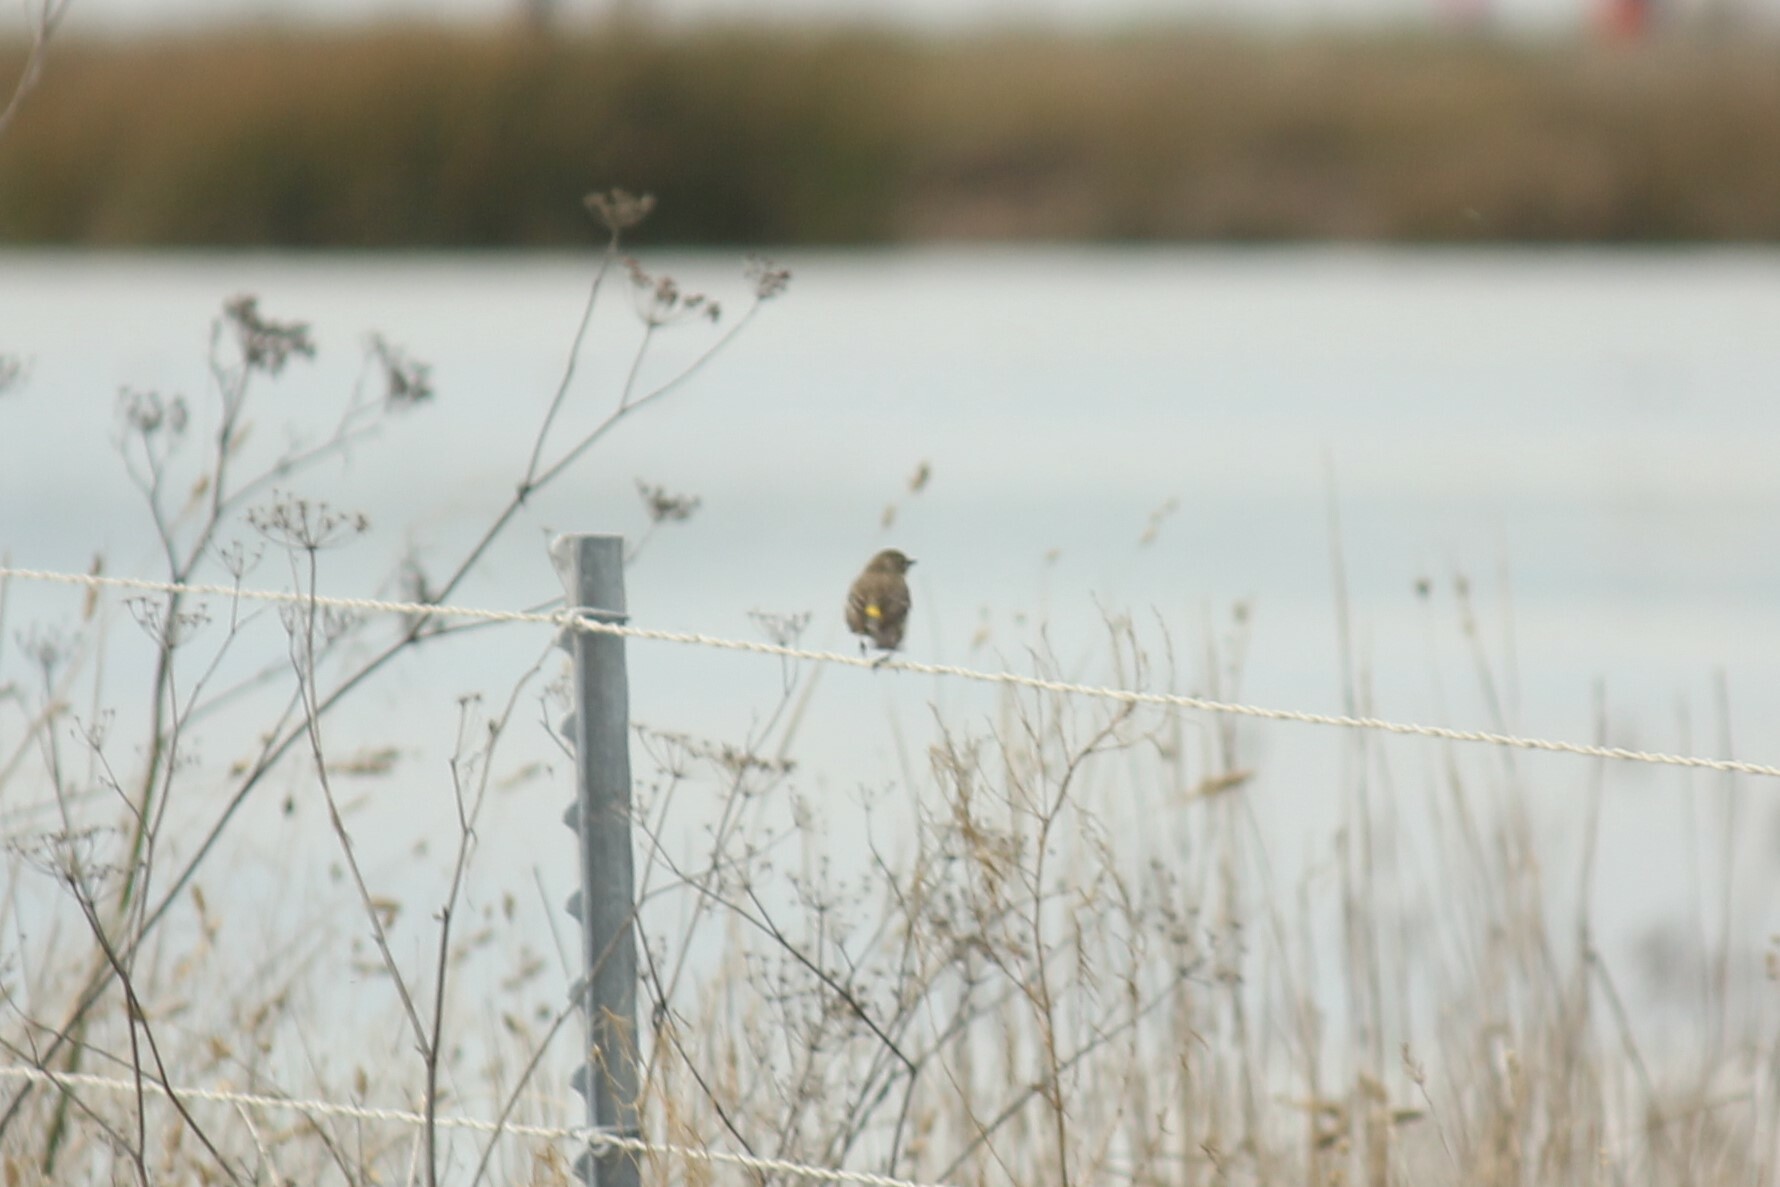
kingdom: Animalia
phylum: Chordata
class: Aves
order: Passeriformes
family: Parulidae
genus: Setophaga
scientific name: Setophaga coronata
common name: Myrtle warbler
